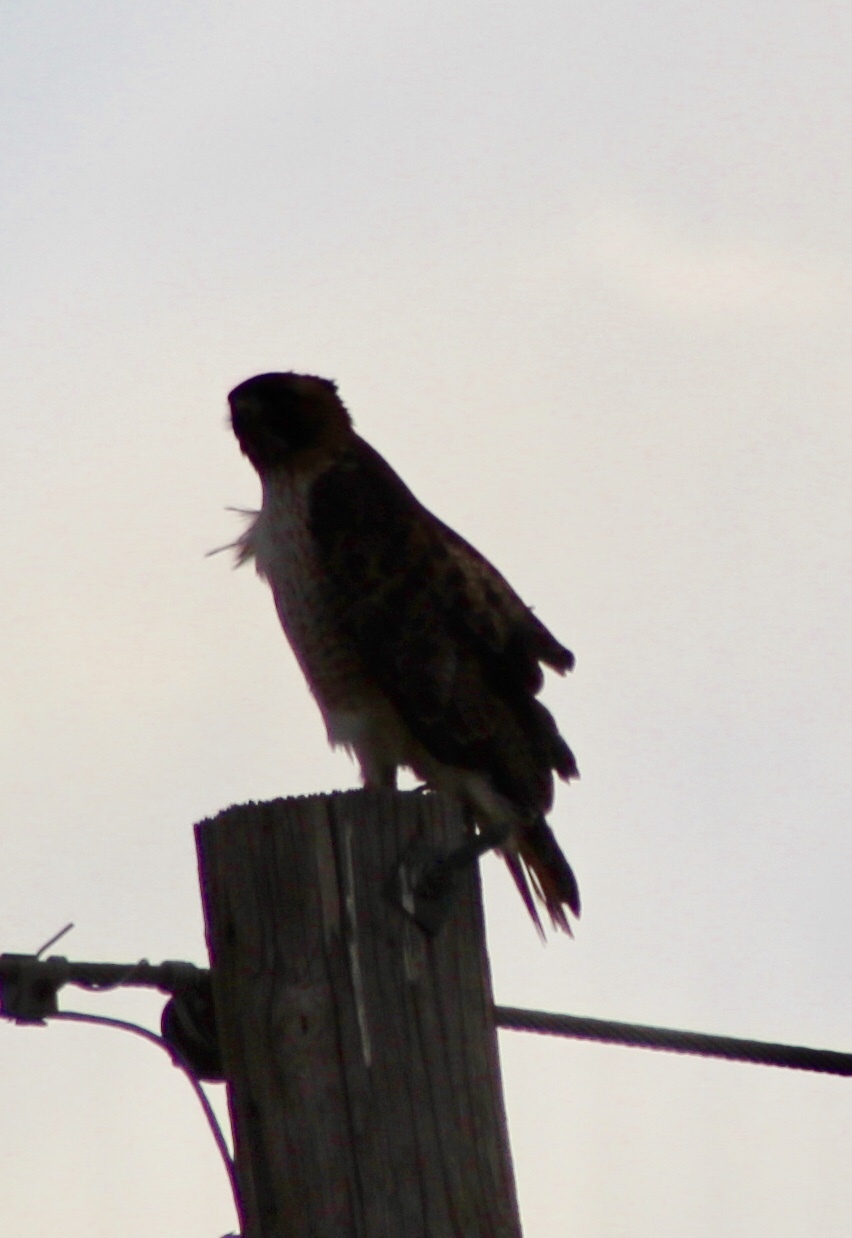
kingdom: Animalia
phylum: Chordata
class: Aves
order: Accipitriformes
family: Accipitridae
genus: Buteo
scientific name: Buteo jamaicensis
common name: Red-tailed hawk
